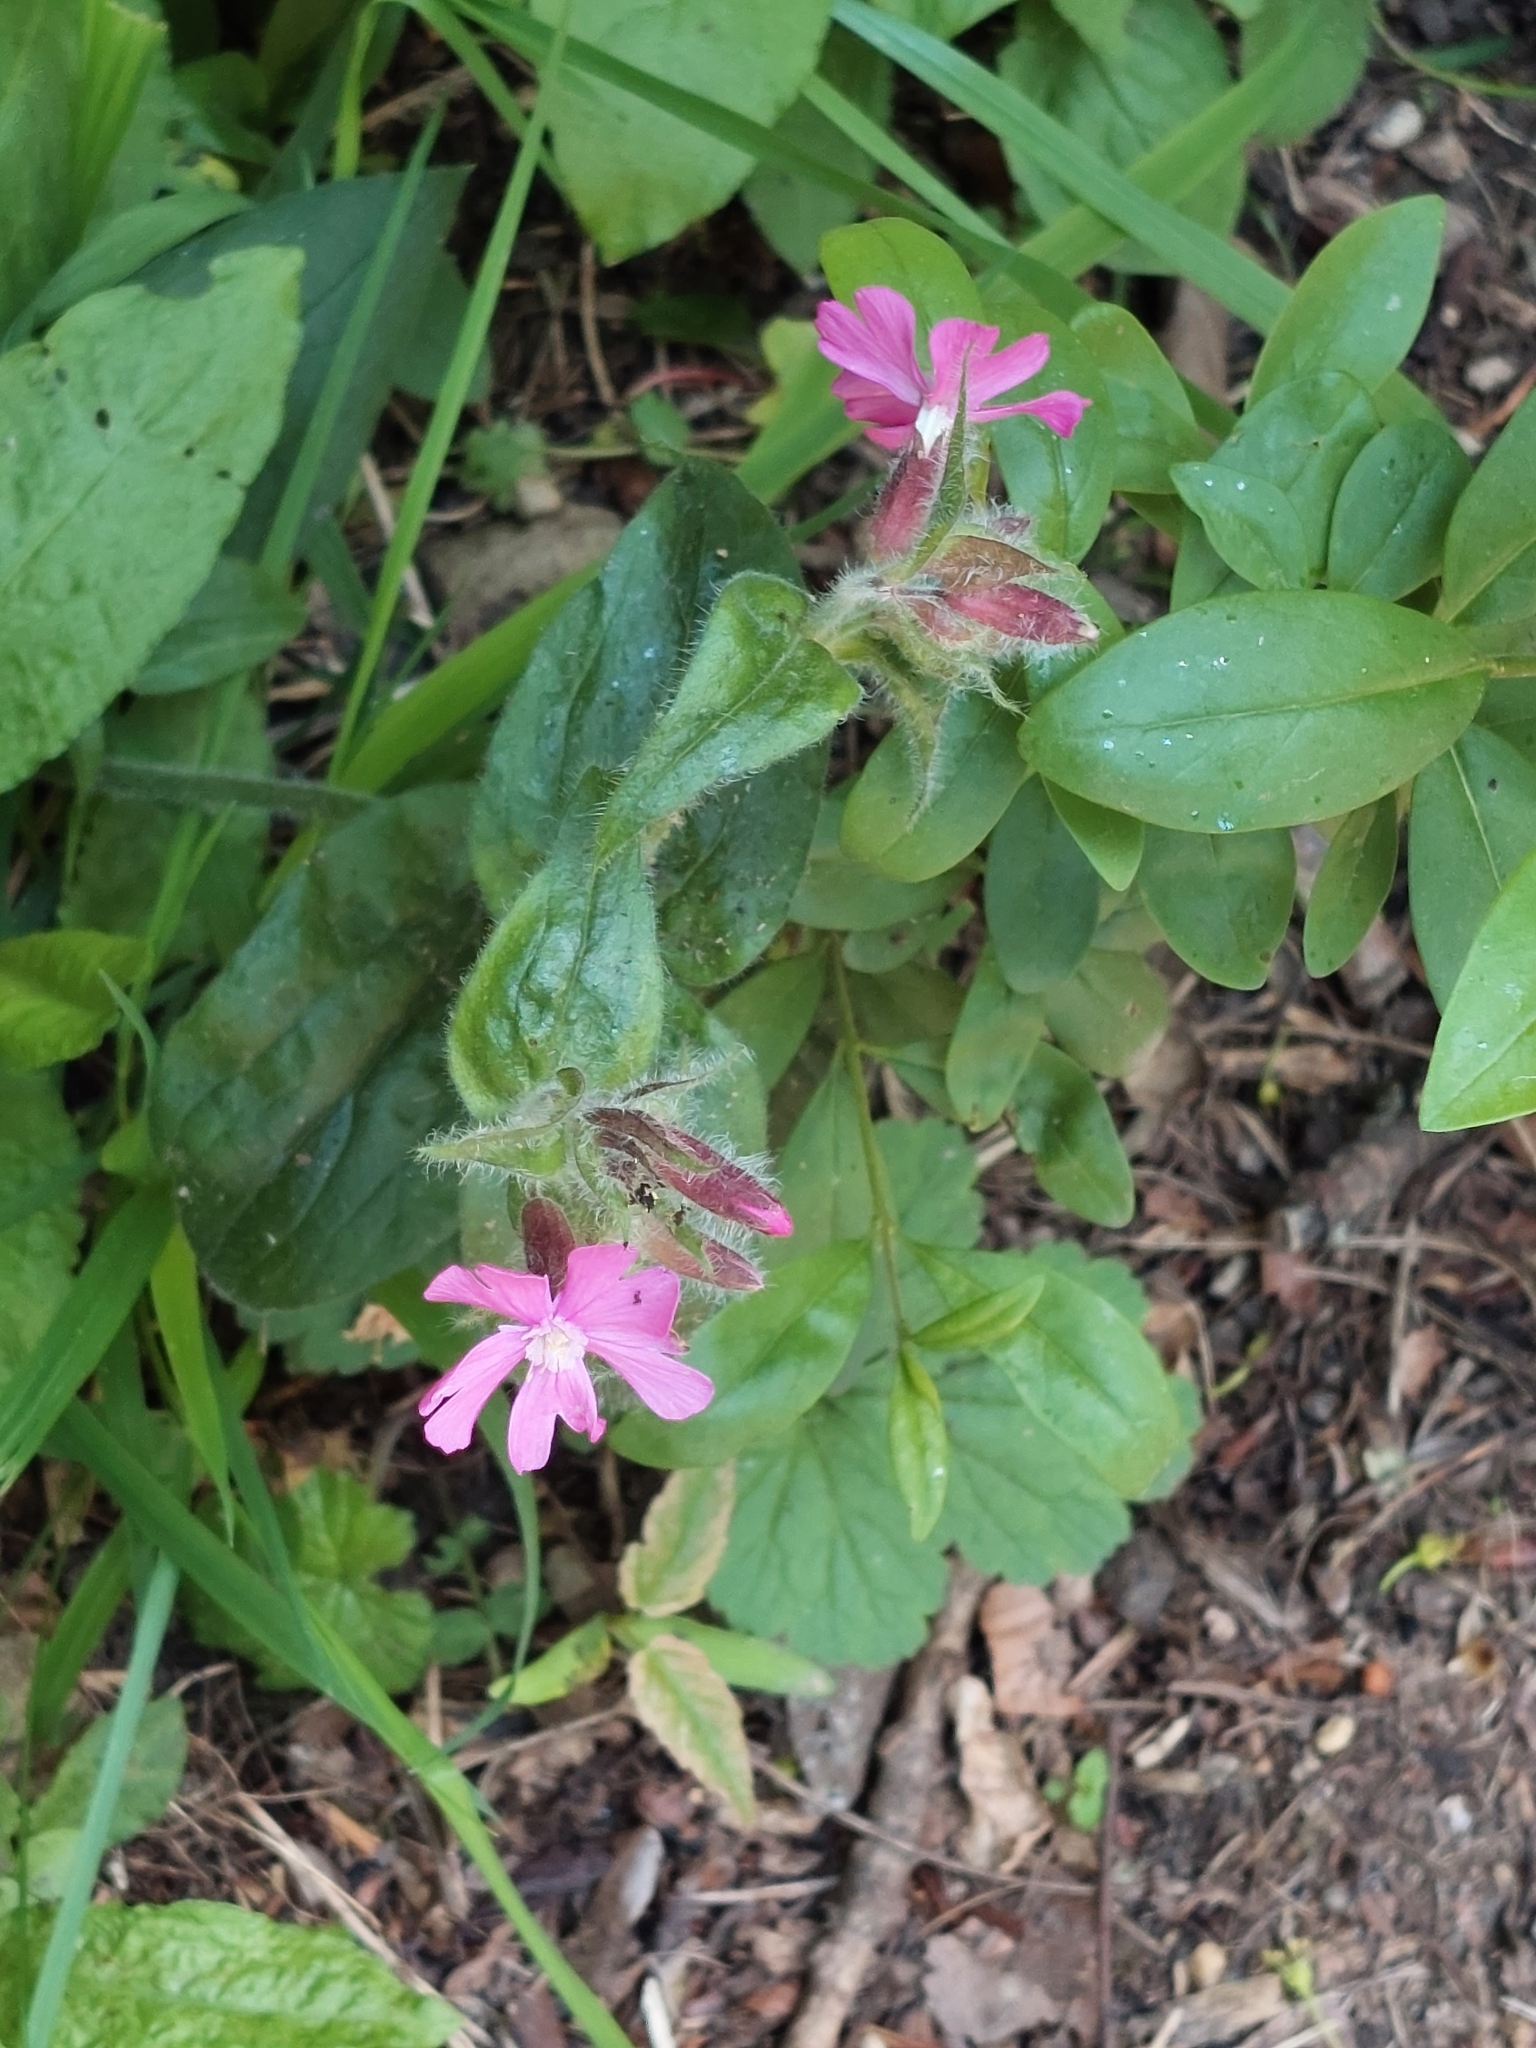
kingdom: Plantae
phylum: Tracheophyta
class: Magnoliopsida
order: Caryophyllales
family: Caryophyllaceae
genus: Silene
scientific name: Silene dioica
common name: Red campion
